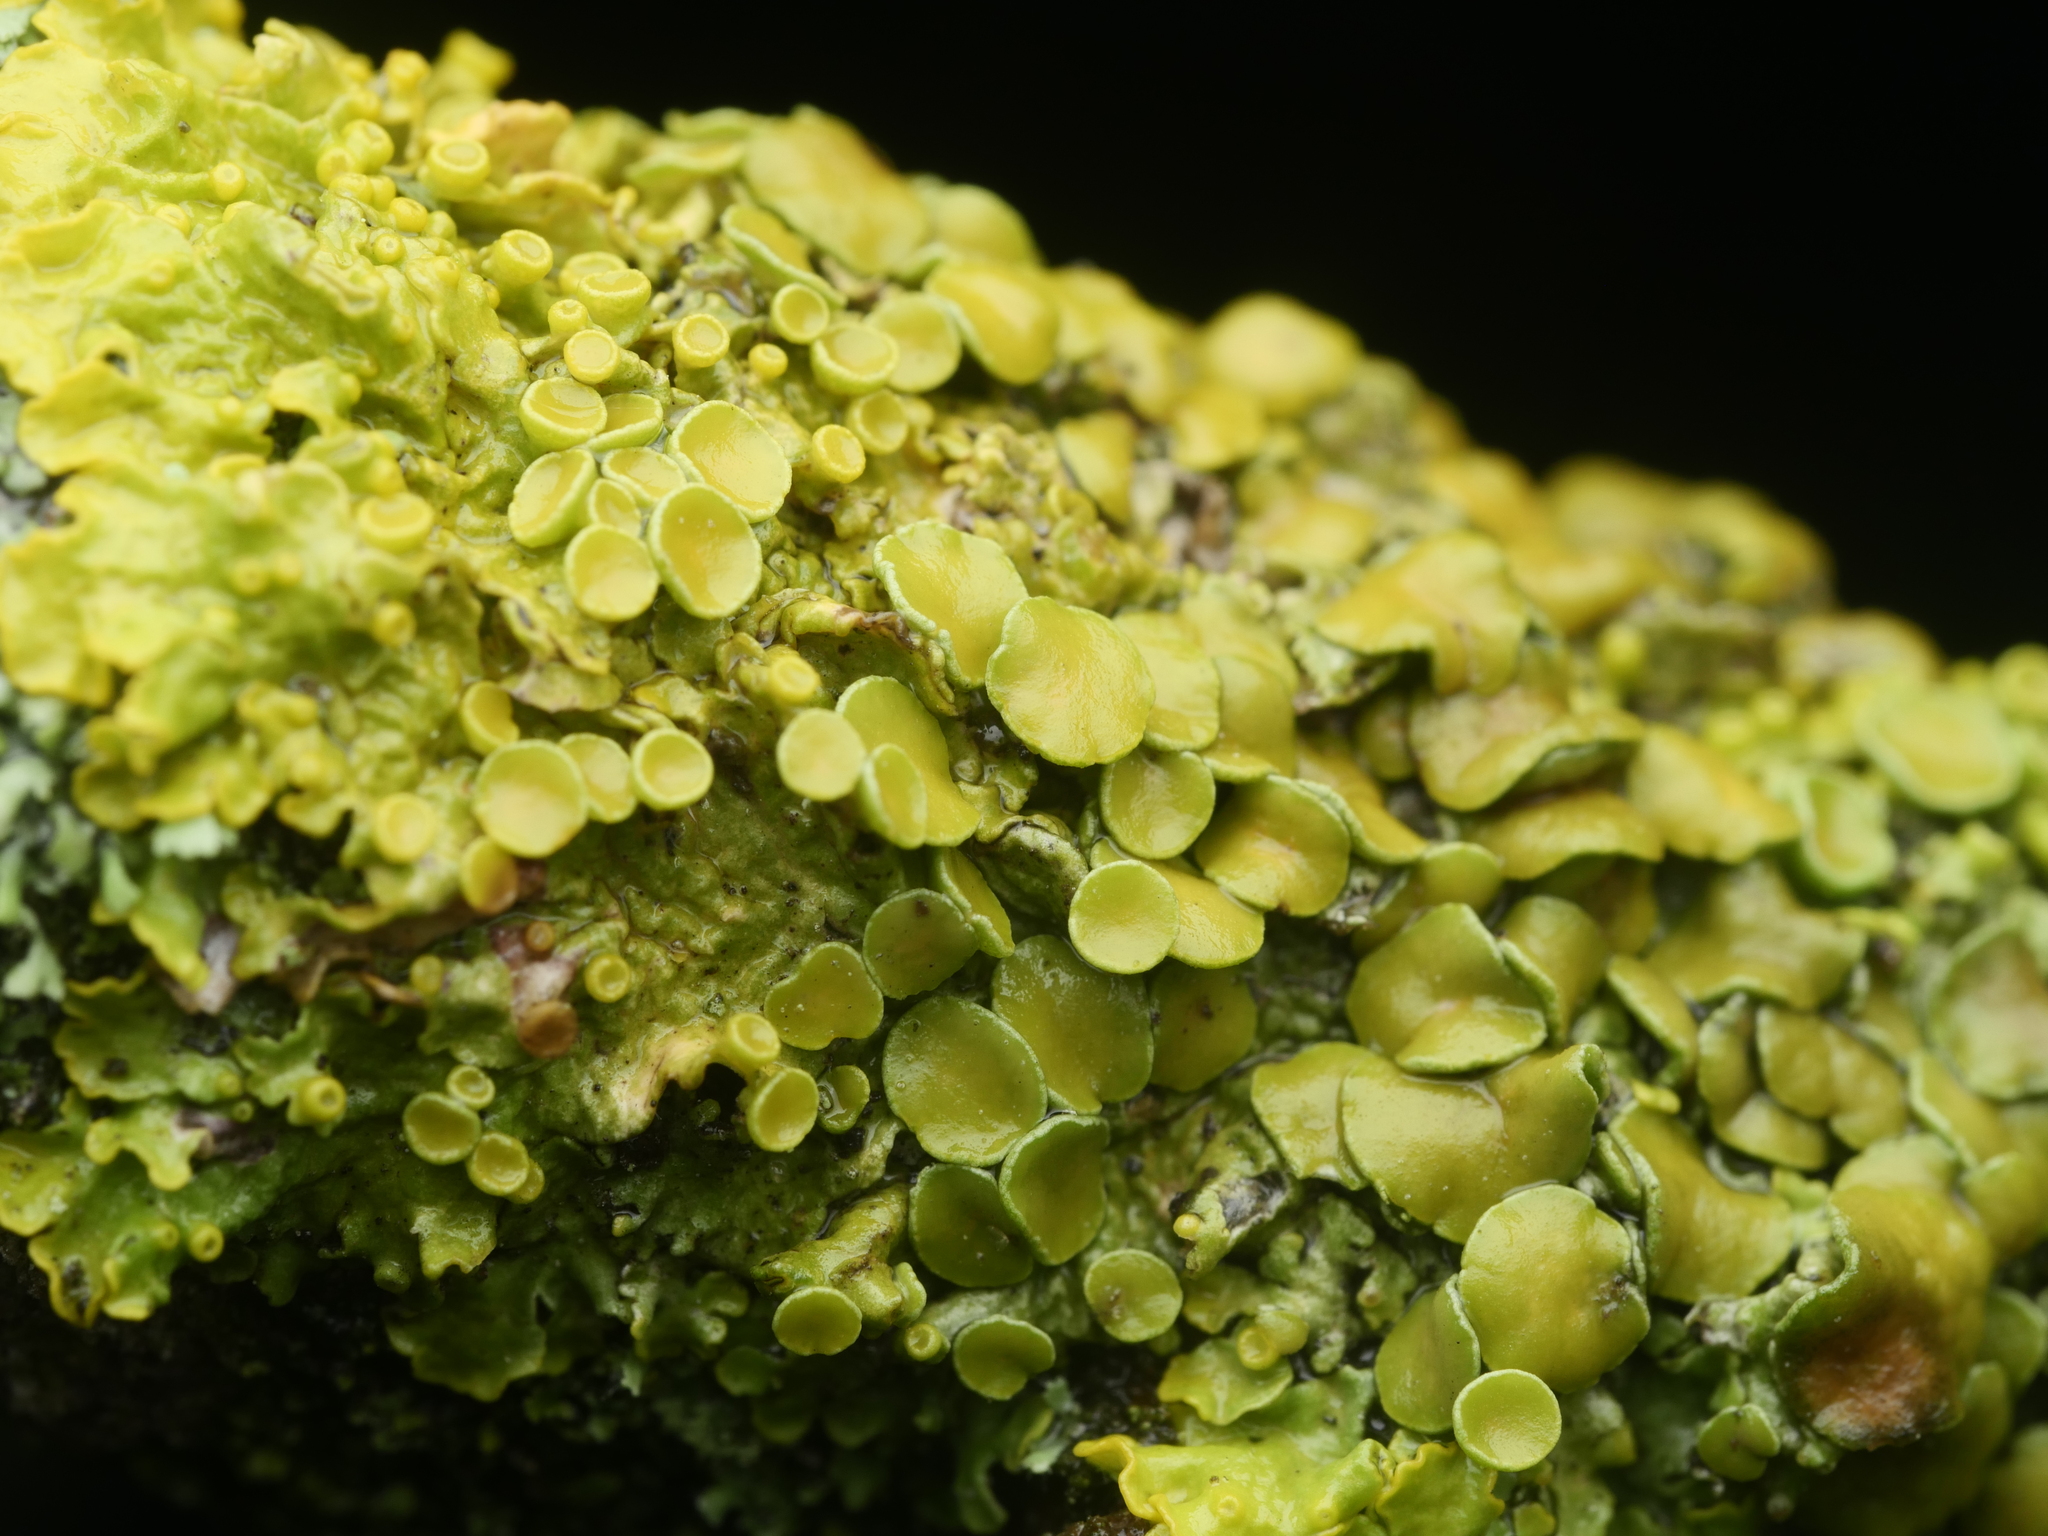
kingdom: Fungi
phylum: Ascomycota
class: Lecanoromycetes
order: Teloschistales
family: Teloschistaceae
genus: Xanthoria
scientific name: Xanthoria parietina
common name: Common orange lichen
